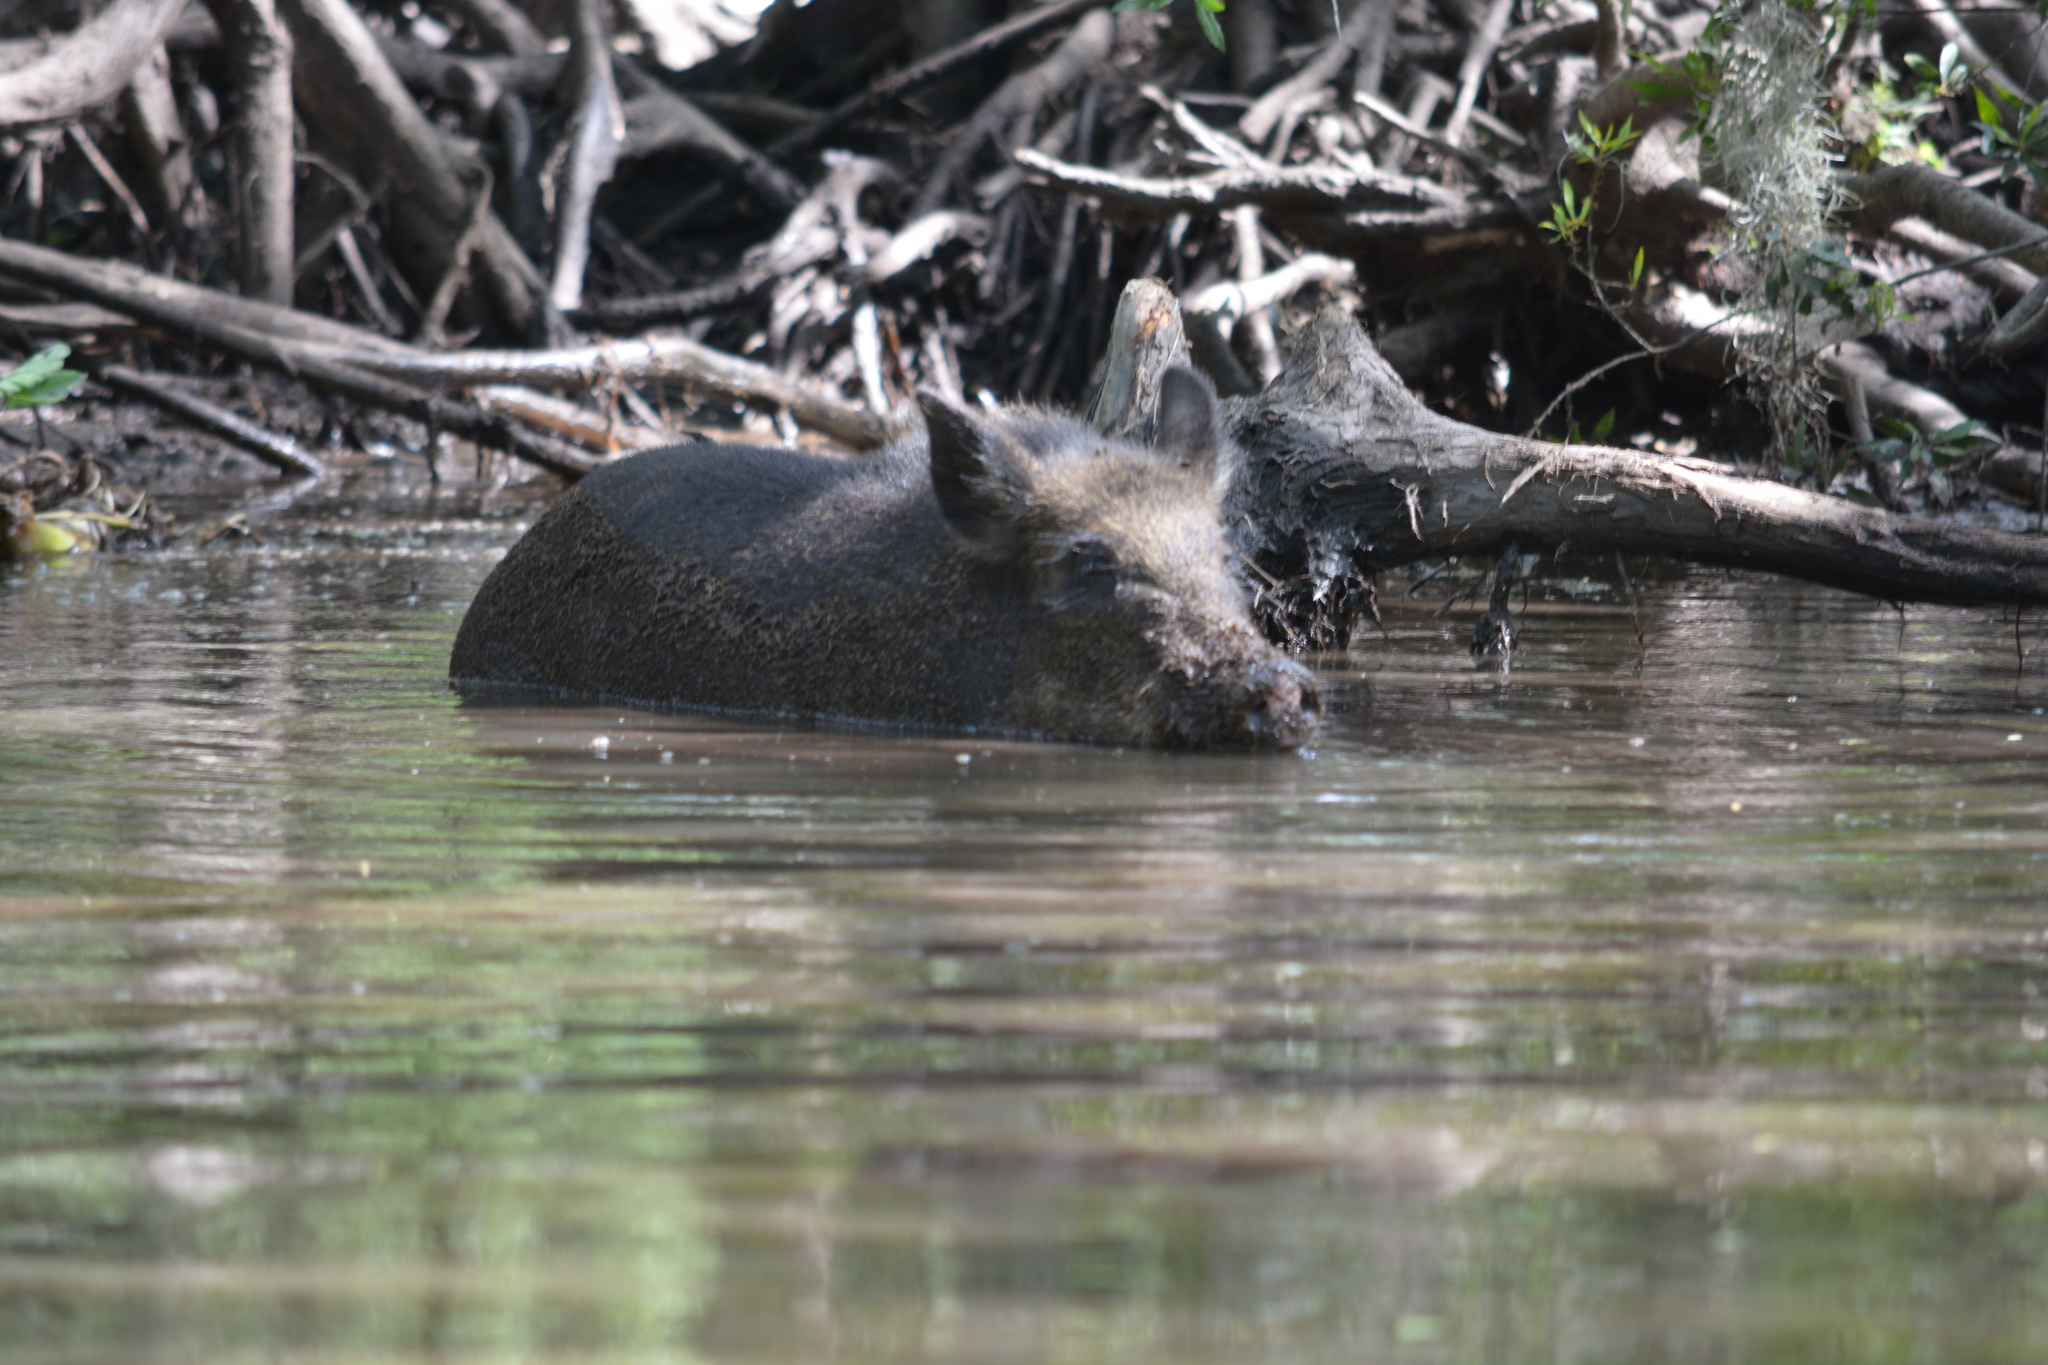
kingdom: Animalia
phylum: Chordata
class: Mammalia
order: Artiodactyla
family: Suidae
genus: Sus
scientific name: Sus scrofa
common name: Wild boar
